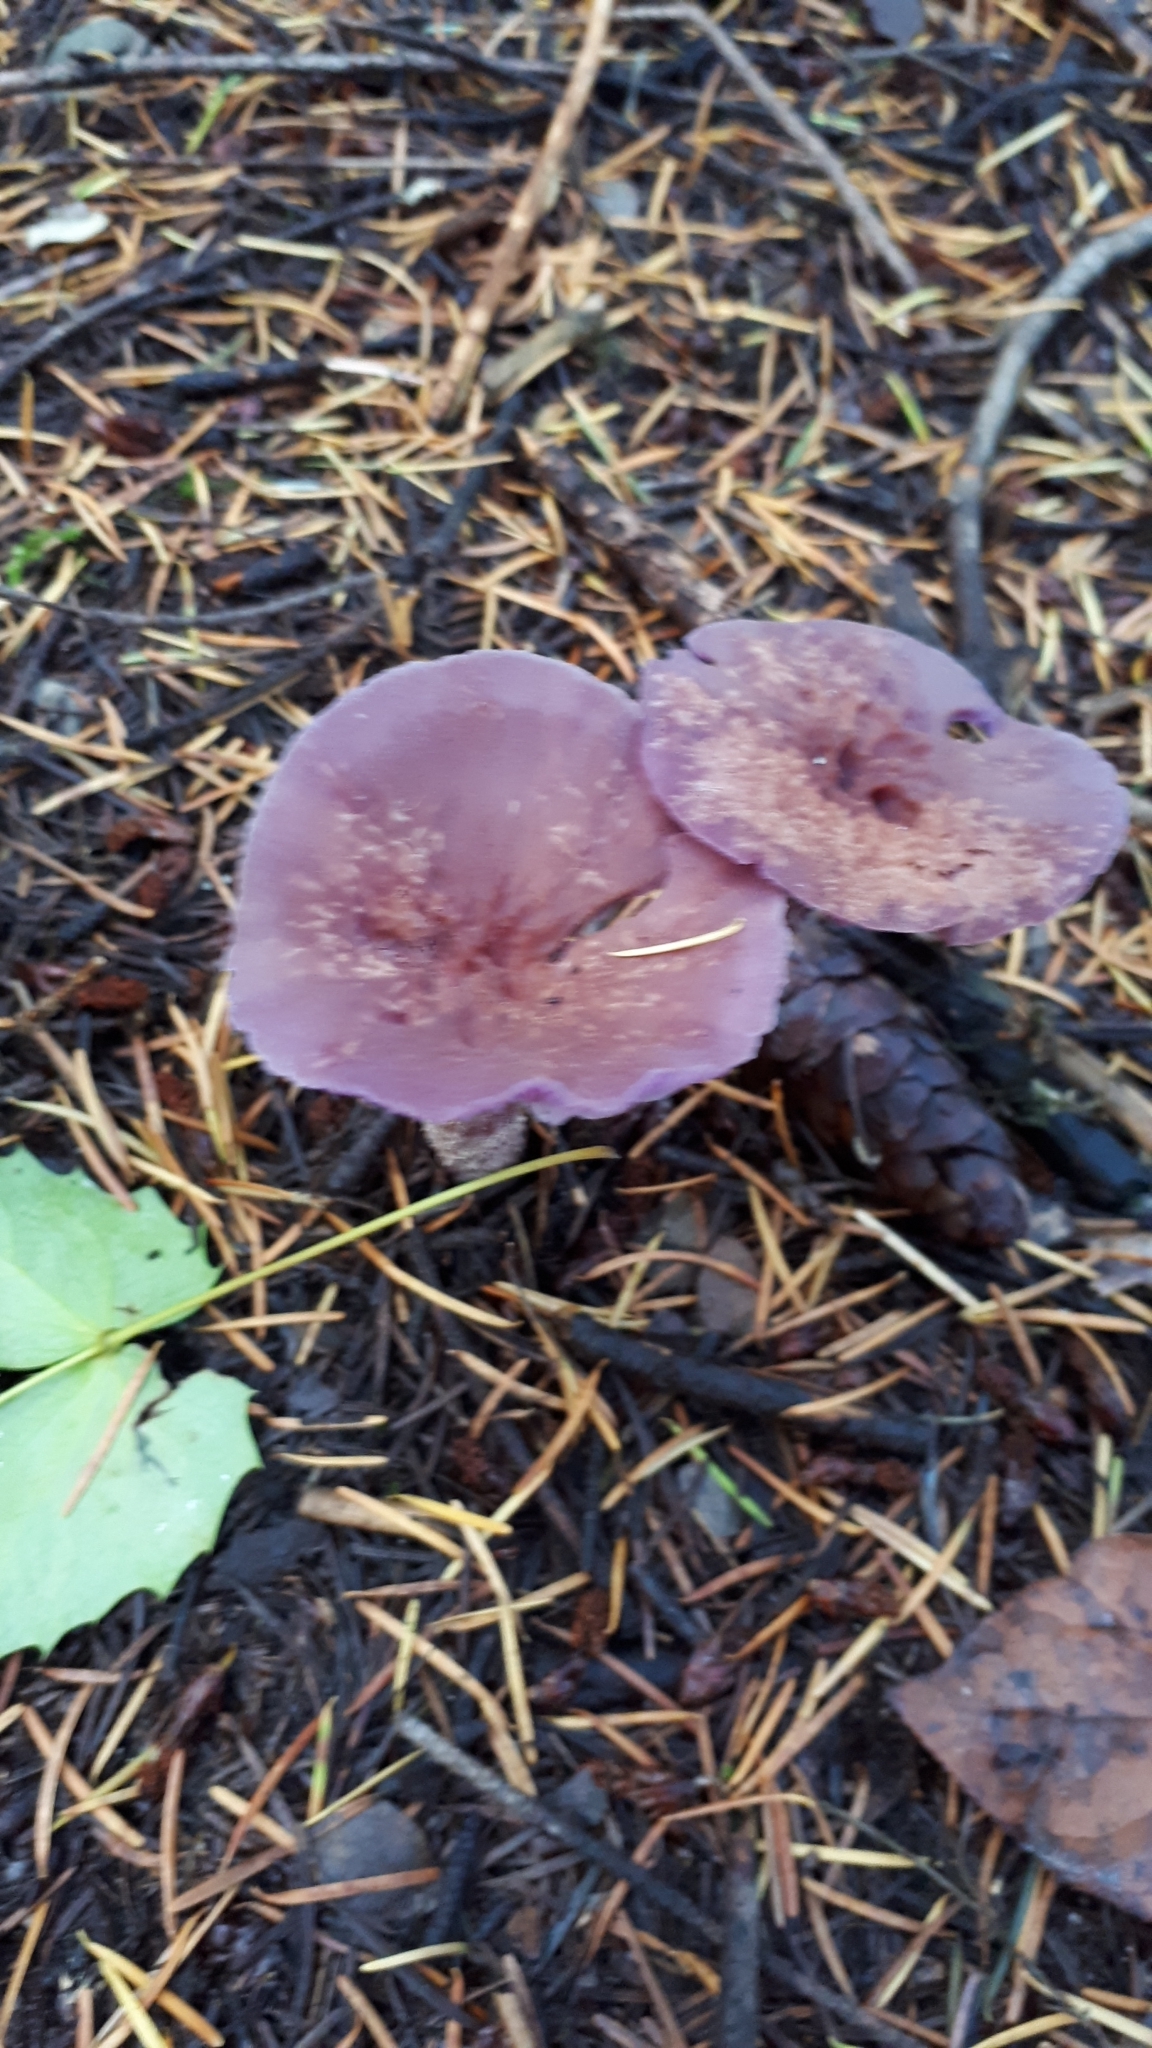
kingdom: Fungi
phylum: Basidiomycota
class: Agaricomycetes
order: Agaricales
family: Hydnangiaceae
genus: Laccaria
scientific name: Laccaria amethysteo-occidentalis
